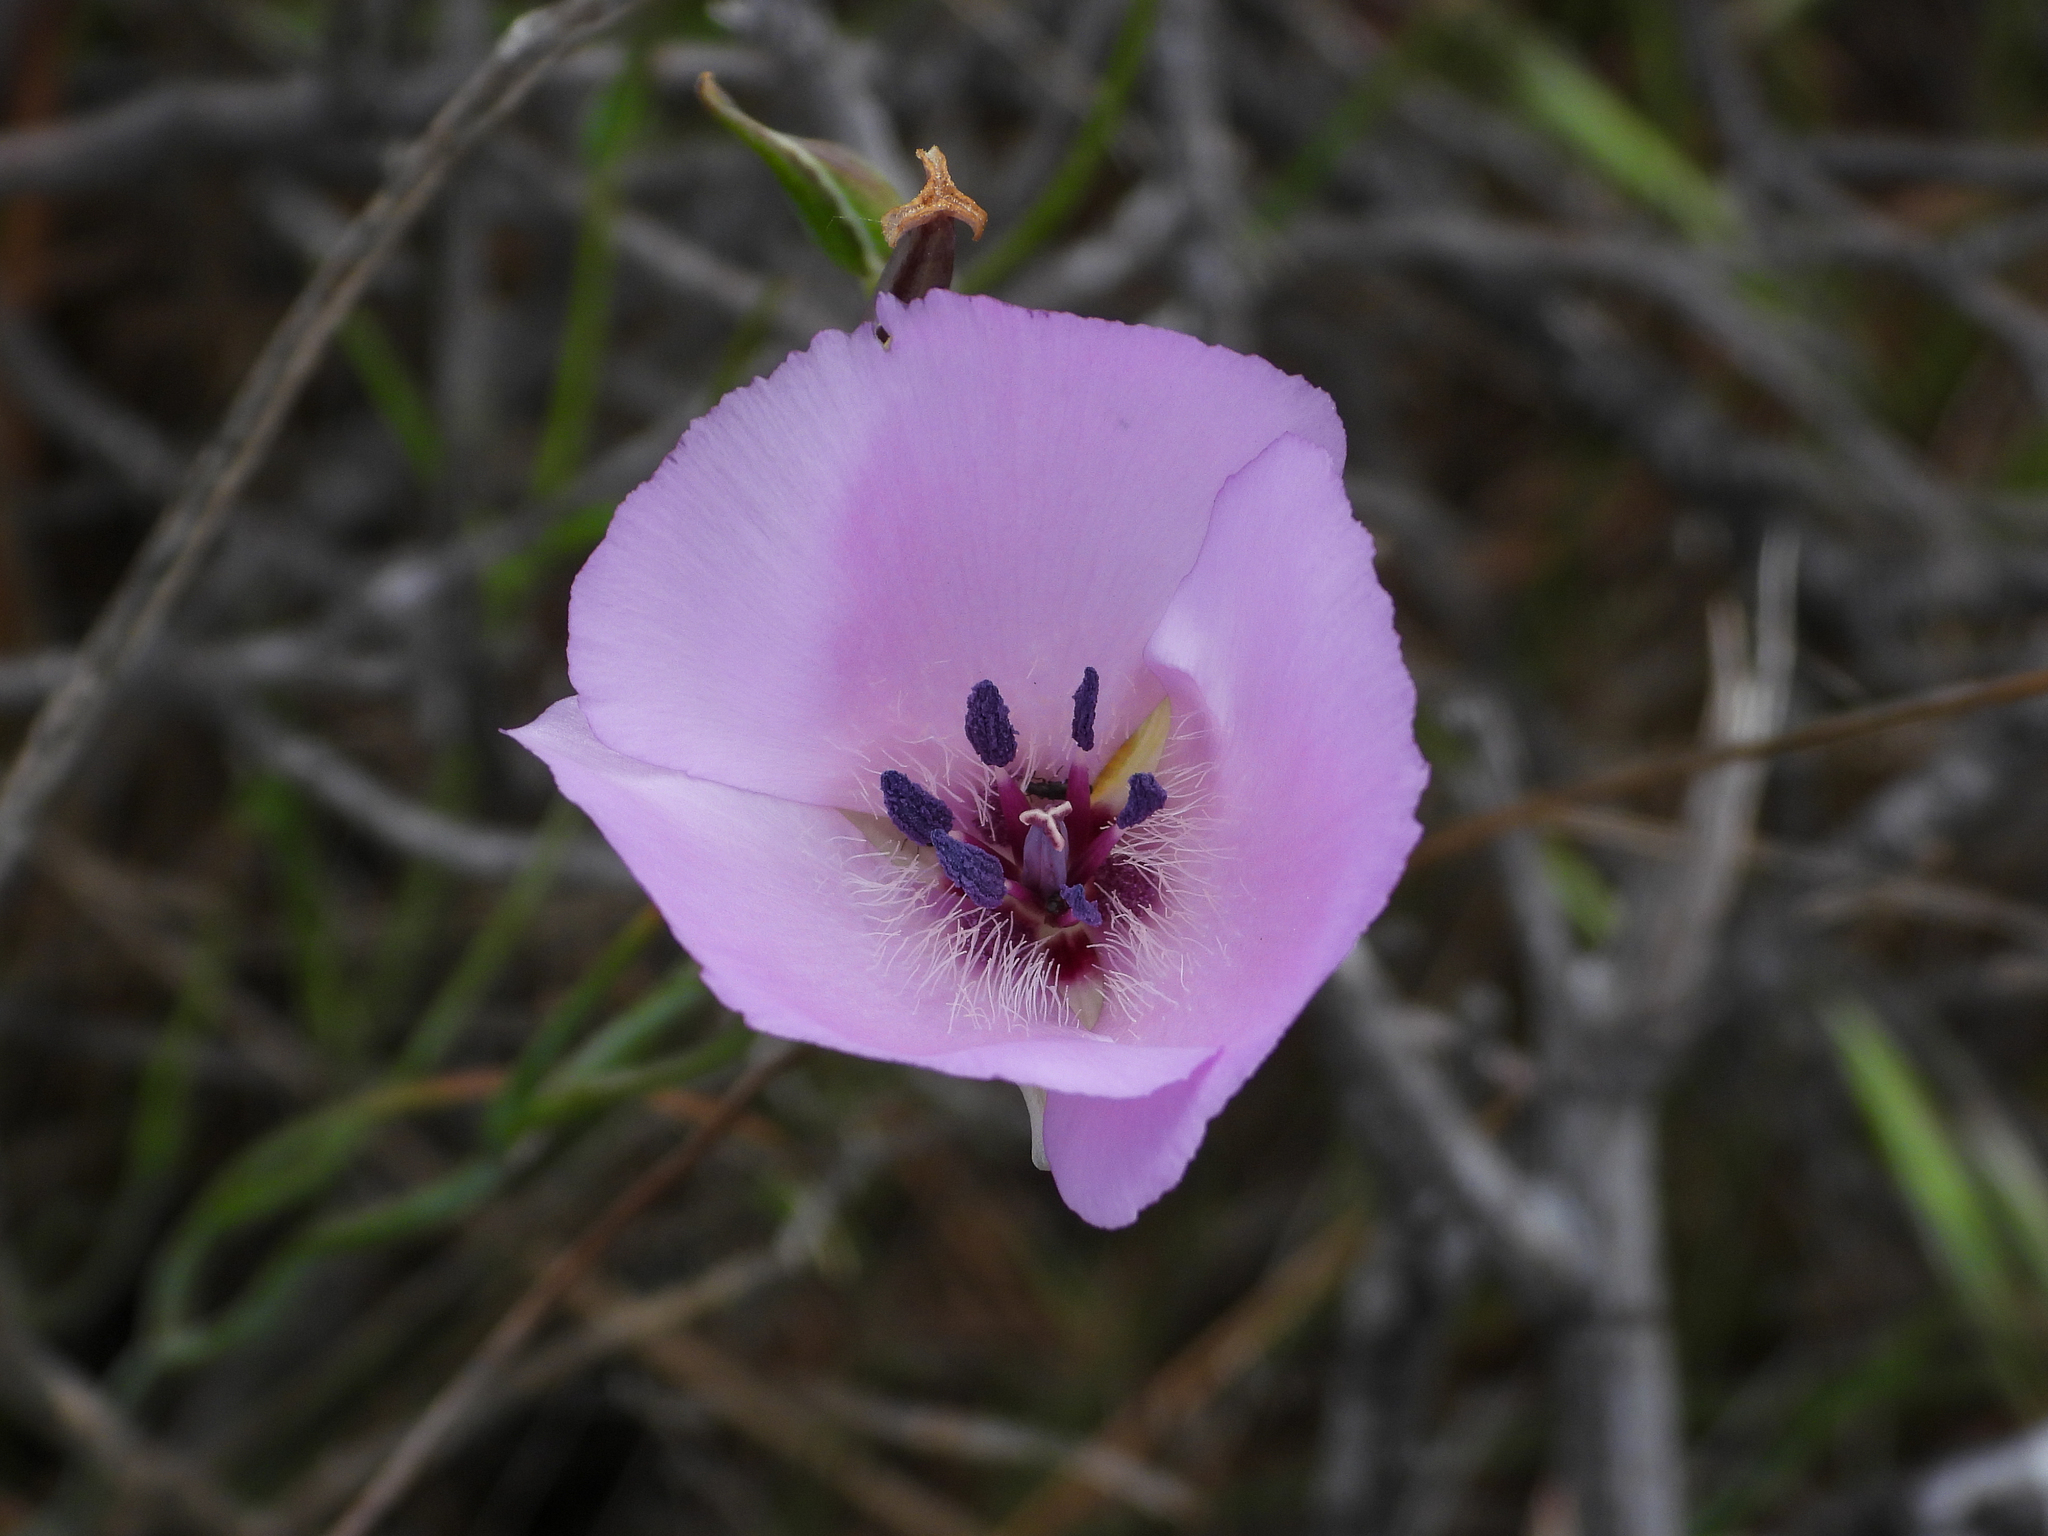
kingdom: Plantae
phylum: Tracheophyta
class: Liliopsida
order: Liliales
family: Liliaceae
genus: Calochortus
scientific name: Calochortus splendens
